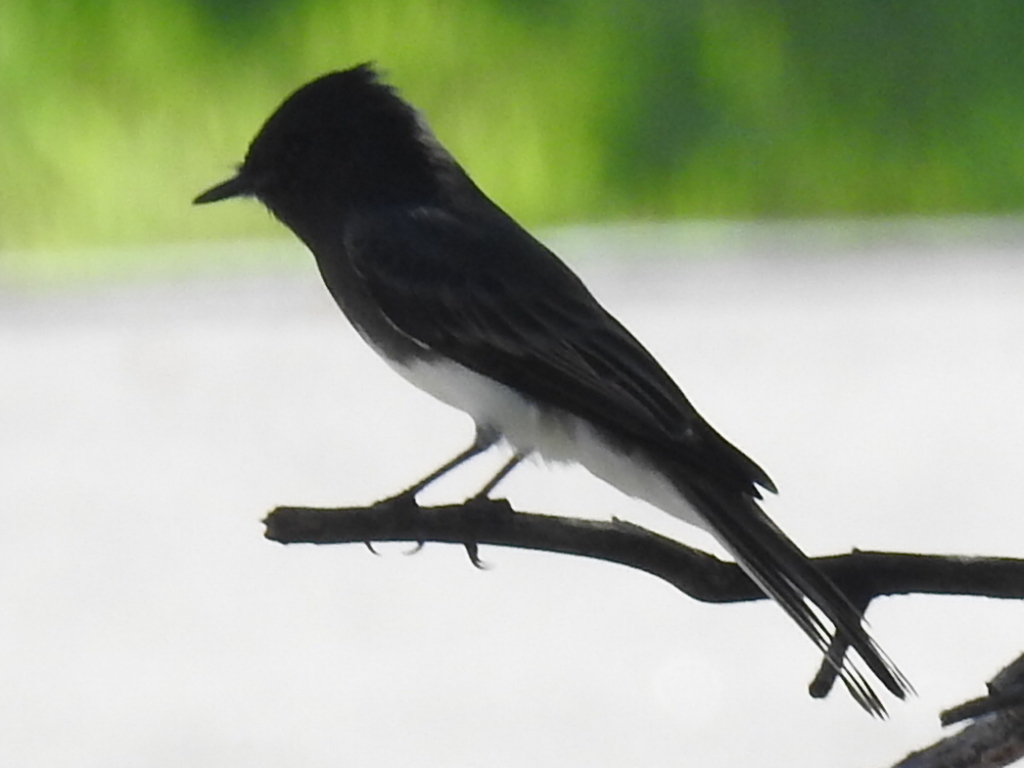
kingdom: Animalia
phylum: Chordata
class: Aves
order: Passeriformes
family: Tyrannidae
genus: Sayornis
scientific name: Sayornis nigricans
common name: Black phoebe
